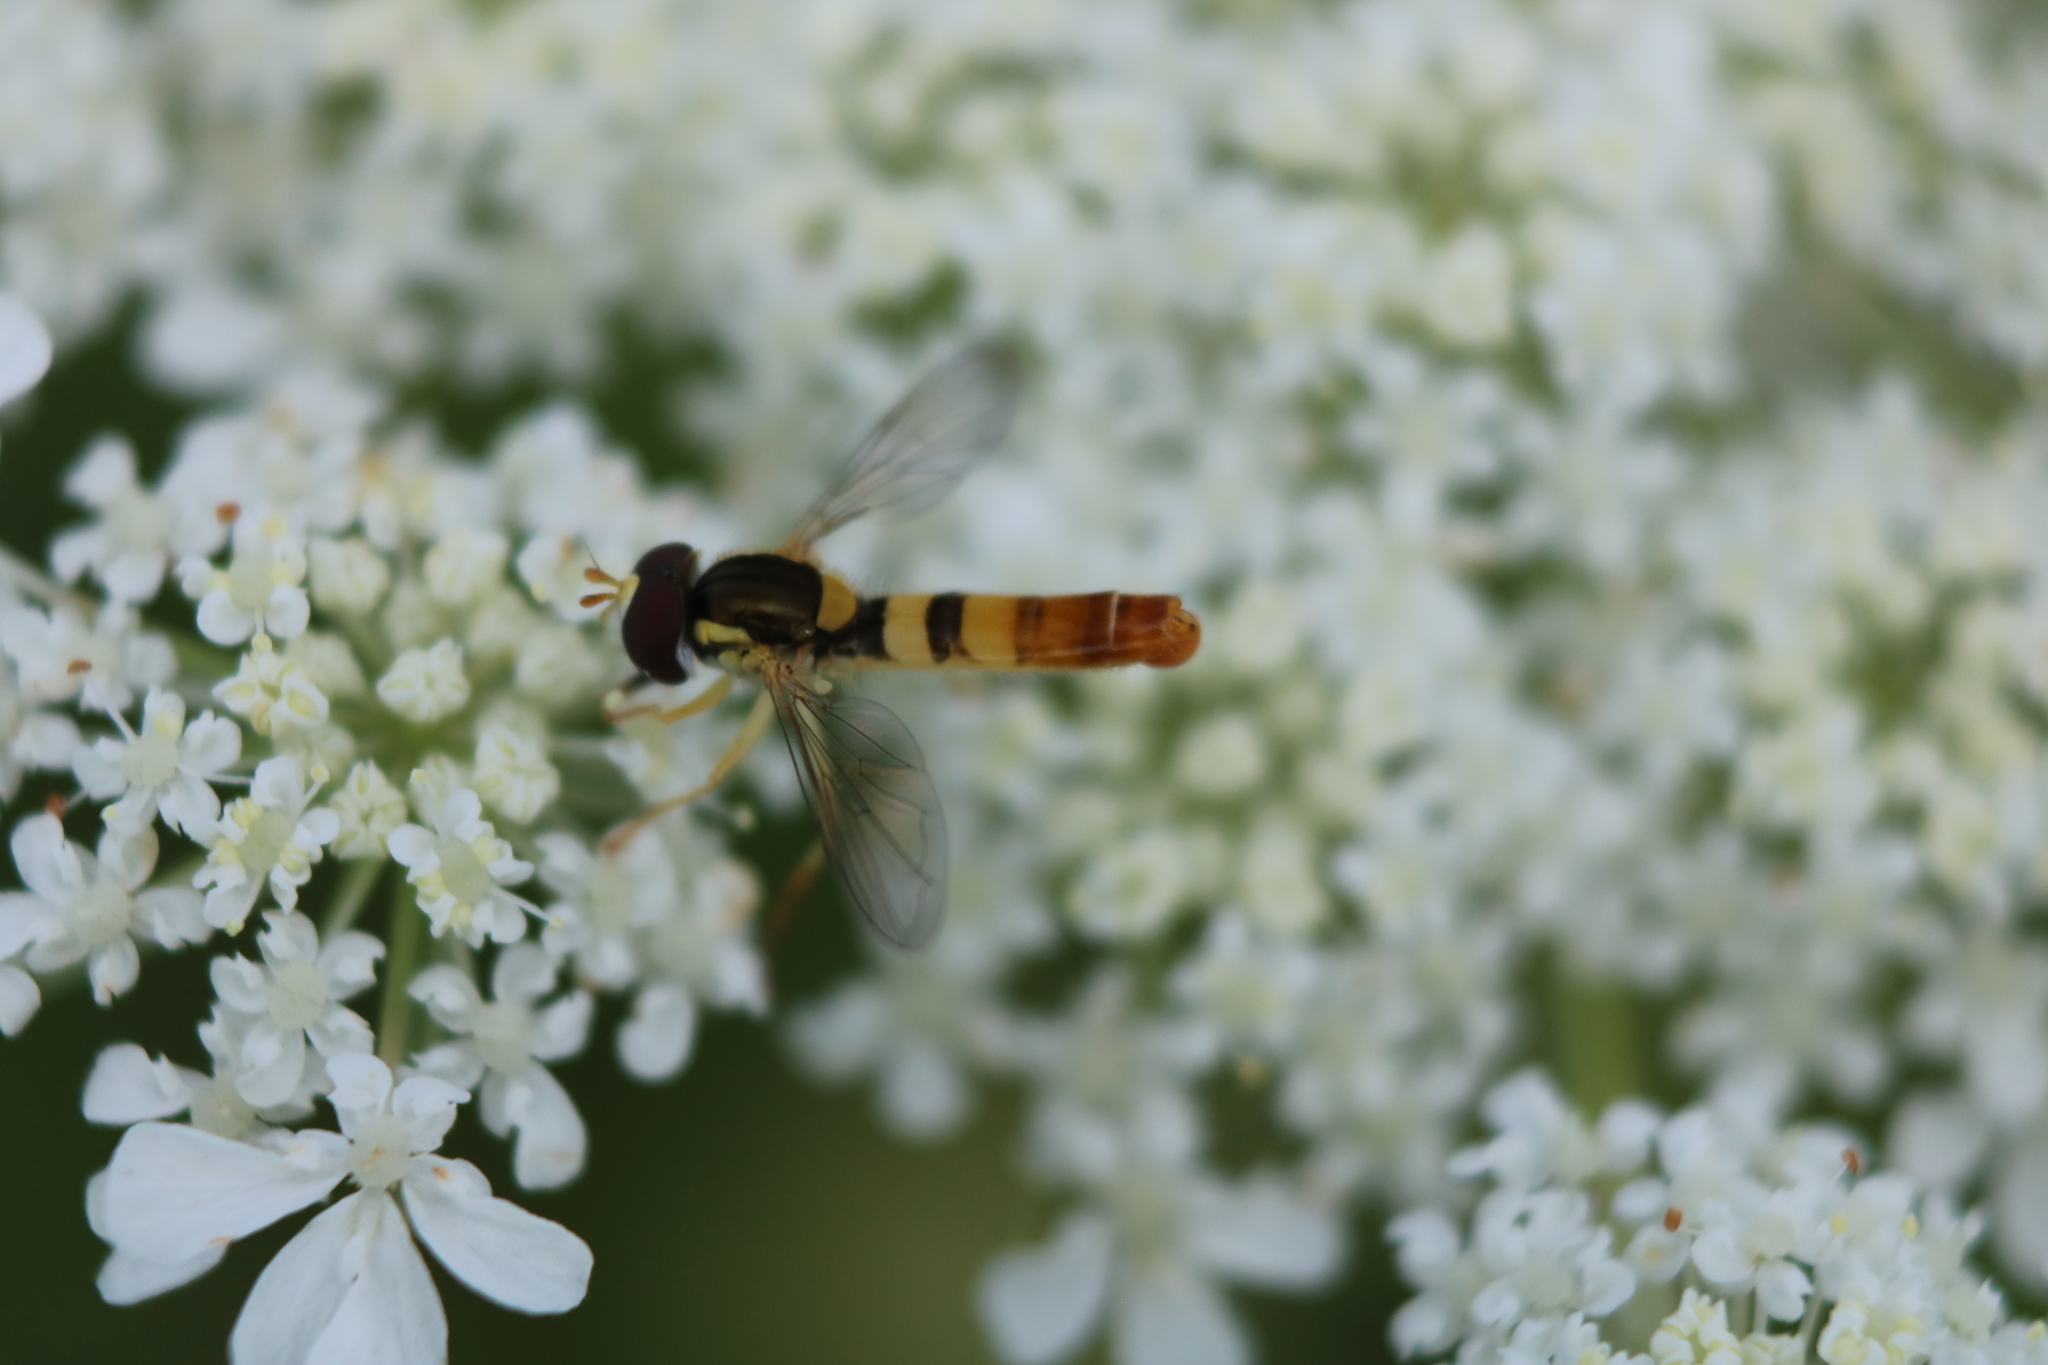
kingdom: Animalia
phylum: Arthropoda
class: Insecta
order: Diptera
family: Syrphidae
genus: Sphaerophoria
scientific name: Sphaerophoria contigua
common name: Tufted globetail
